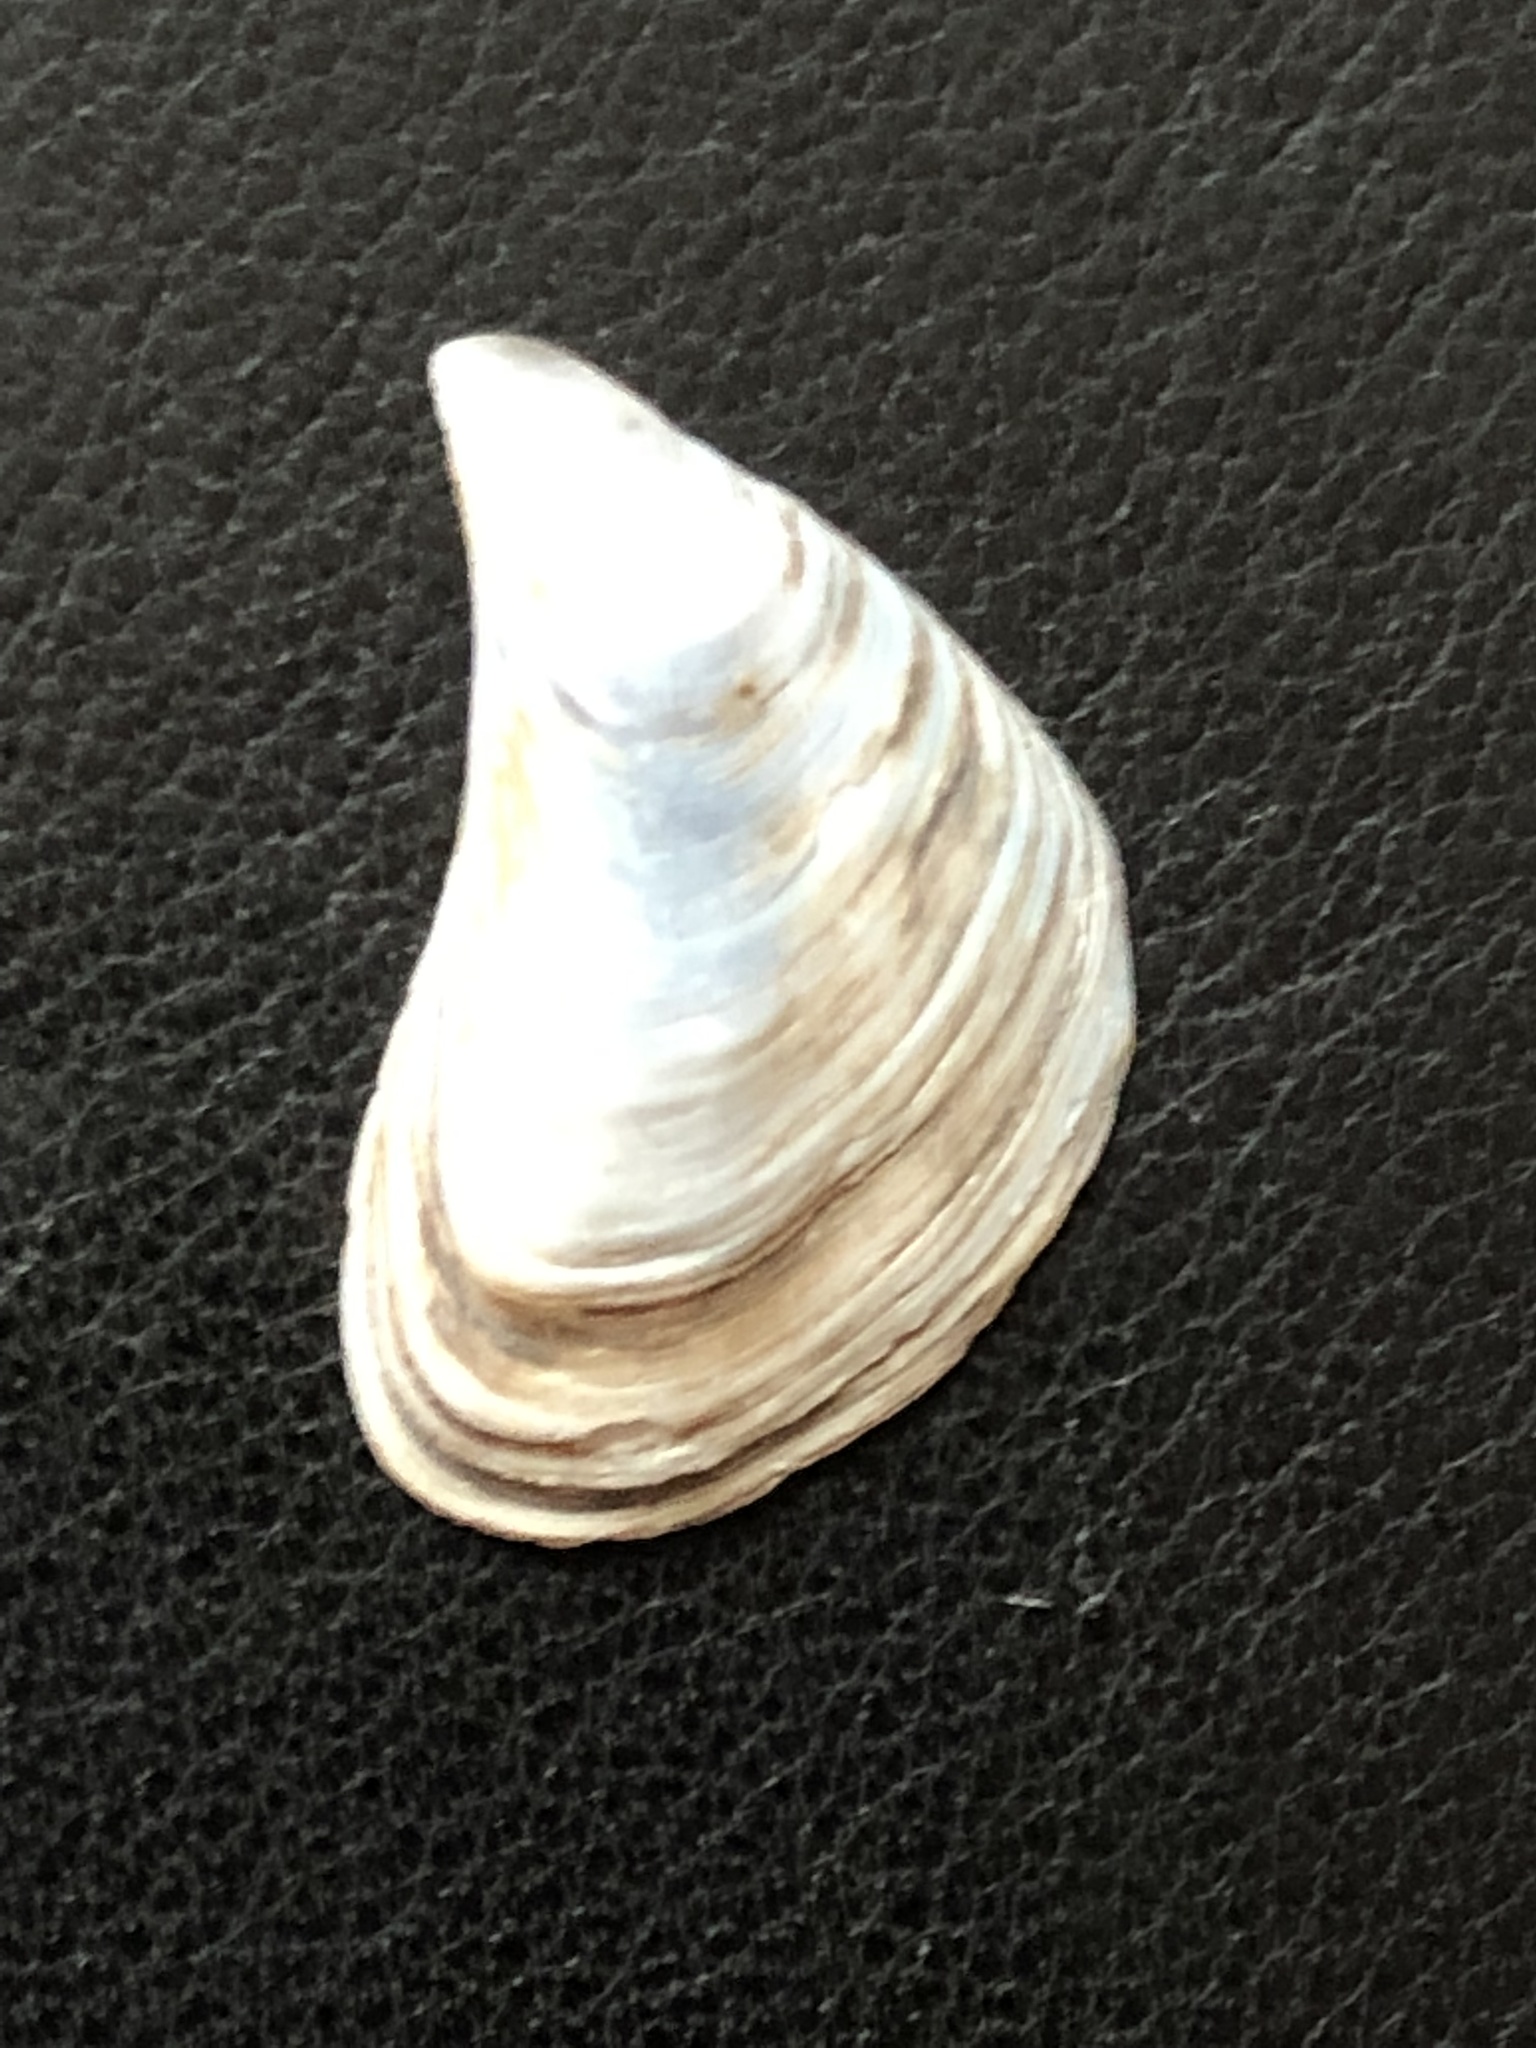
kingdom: Animalia
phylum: Mollusca
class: Bivalvia
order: Myida
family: Dreissenidae
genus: Dreissena
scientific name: Dreissena bugensis
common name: Quagga mussel
